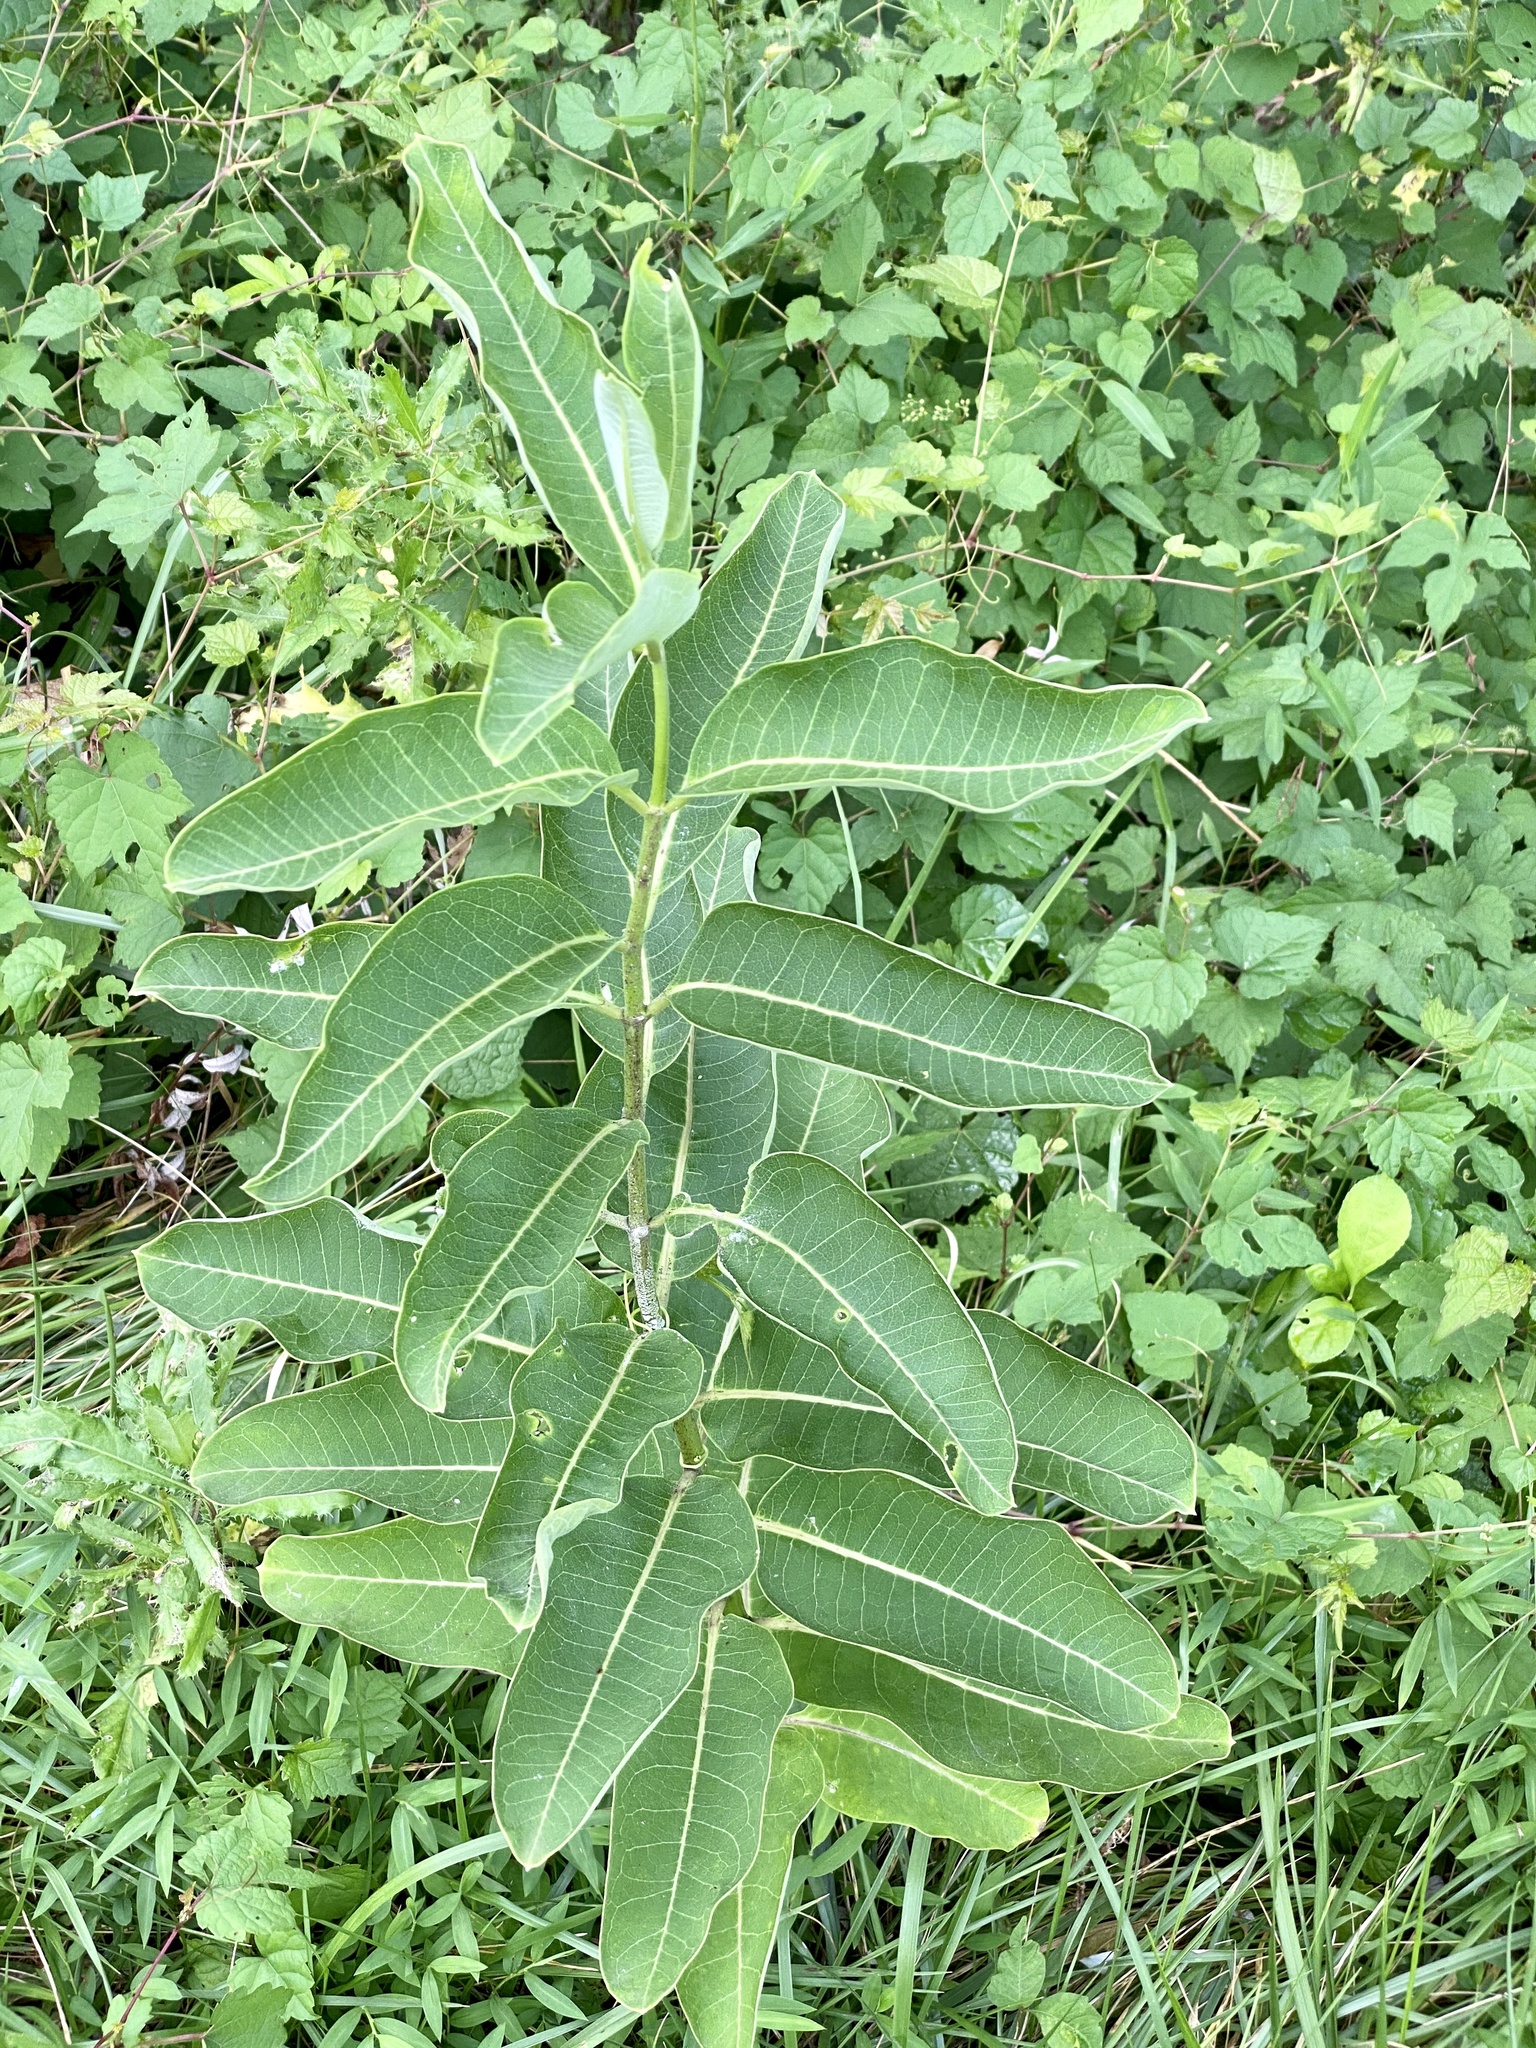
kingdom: Plantae
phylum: Tracheophyta
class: Magnoliopsida
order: Gentianales
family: Apocynaceae
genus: Asclepias
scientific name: Asclepias syriaca
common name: Common milkweed
